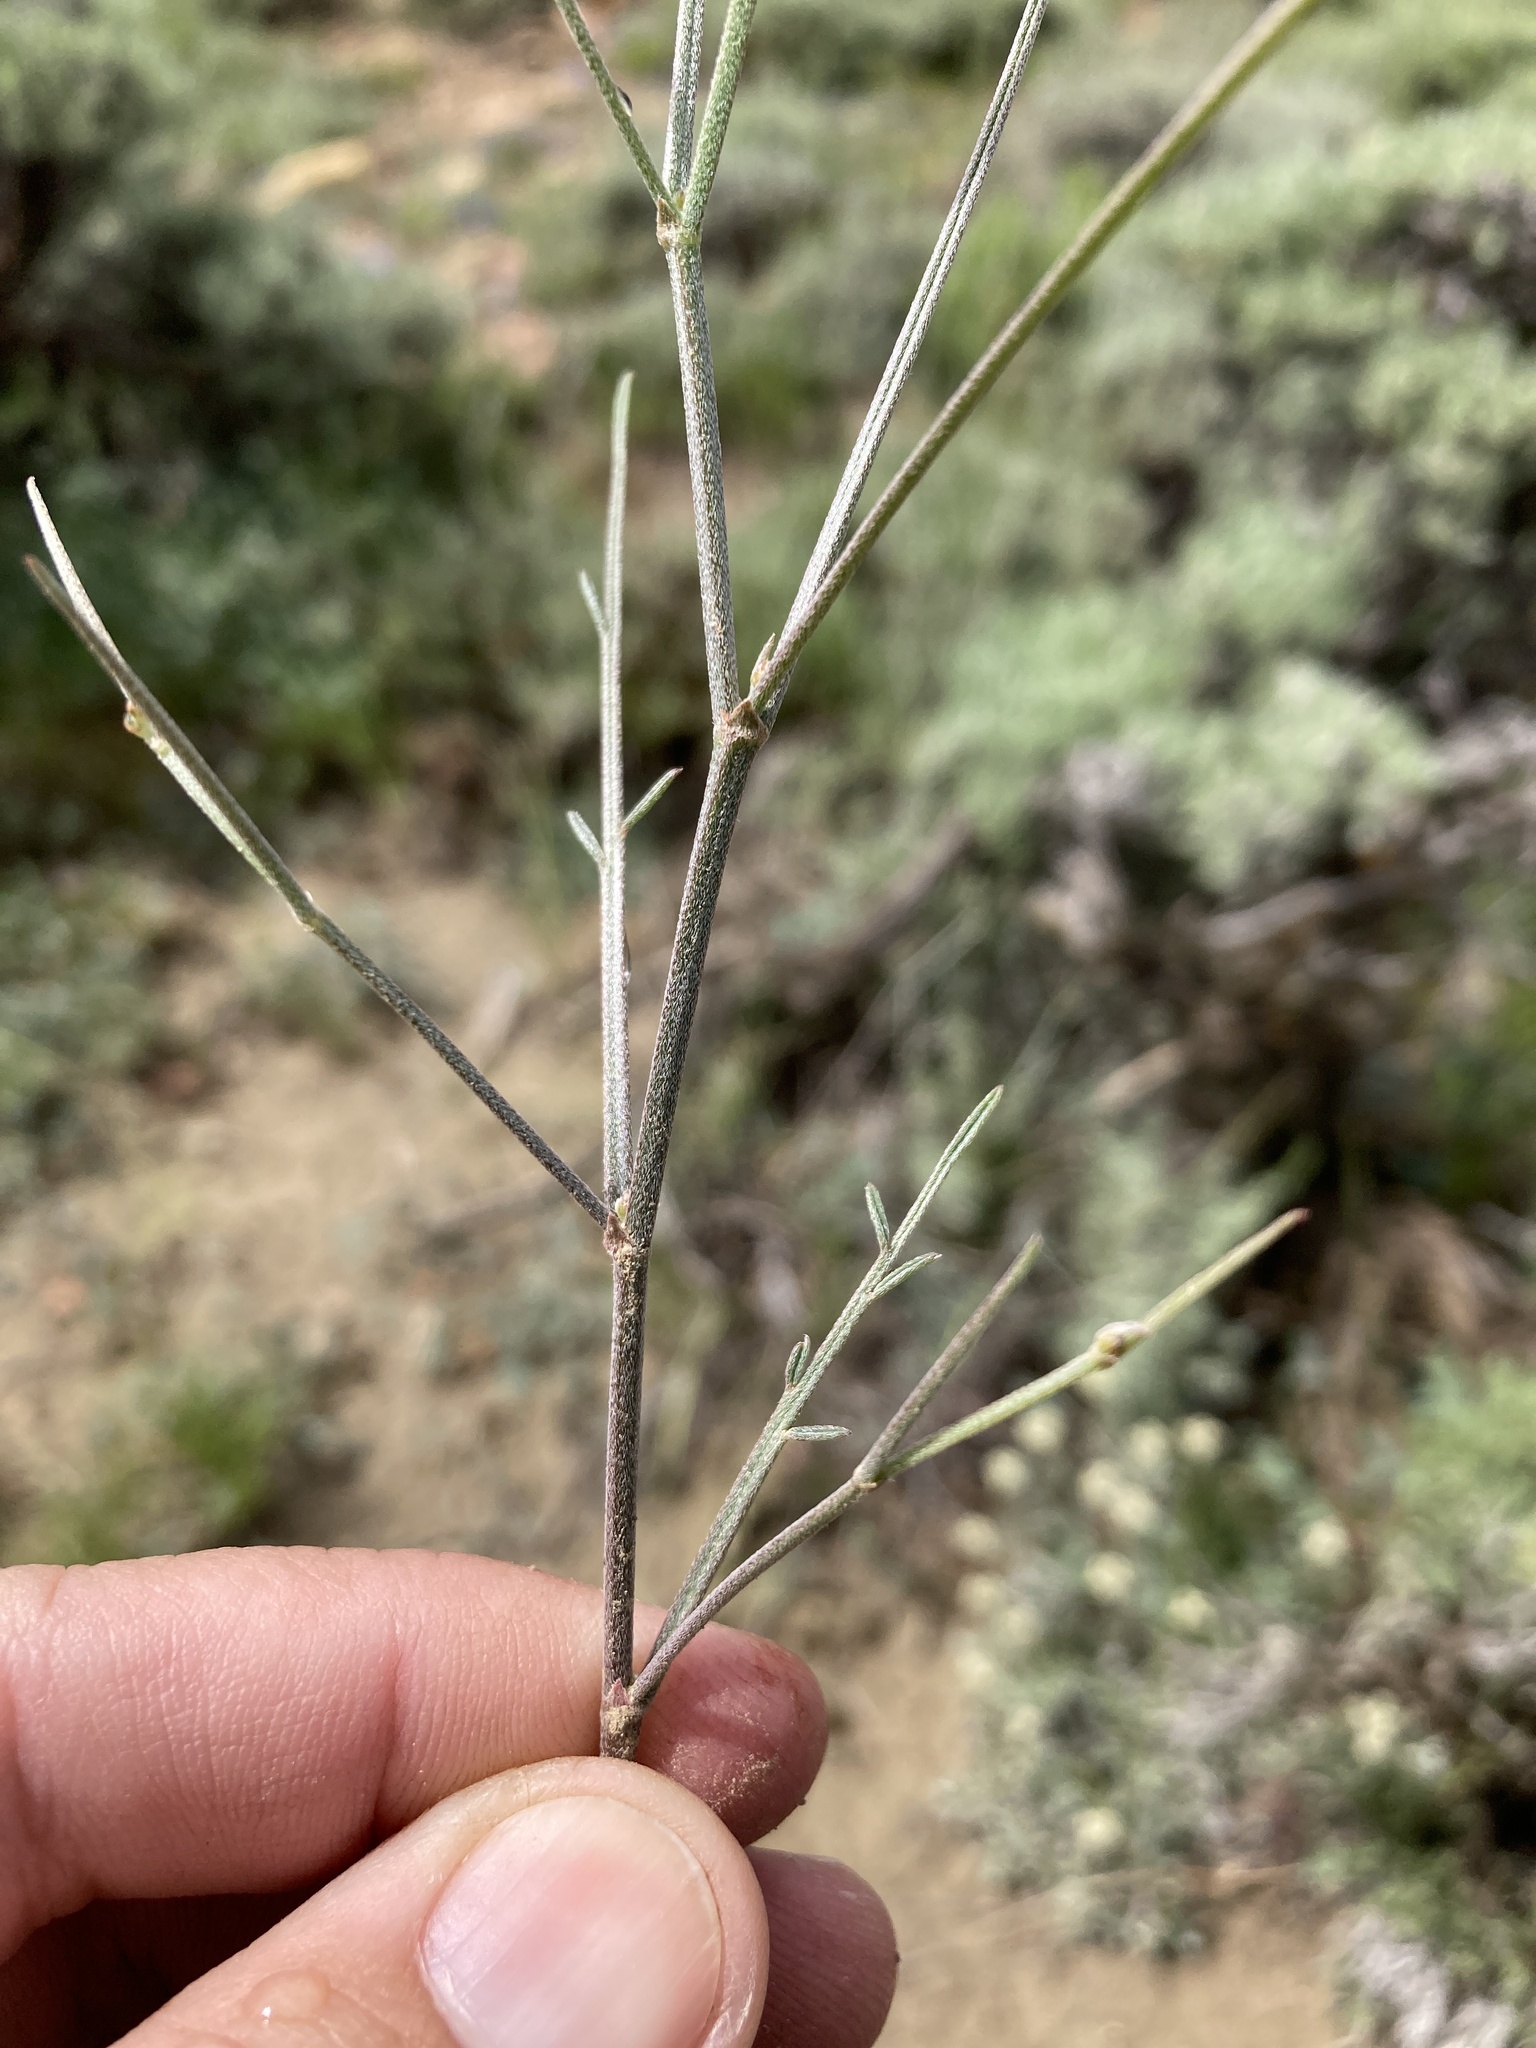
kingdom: Plantae
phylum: Tracheophyta
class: Magnoliopsida
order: Fabales
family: Fabaceae
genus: Astragalus
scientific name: Astragalus convallarius
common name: Lesser rushy milk-vetch
